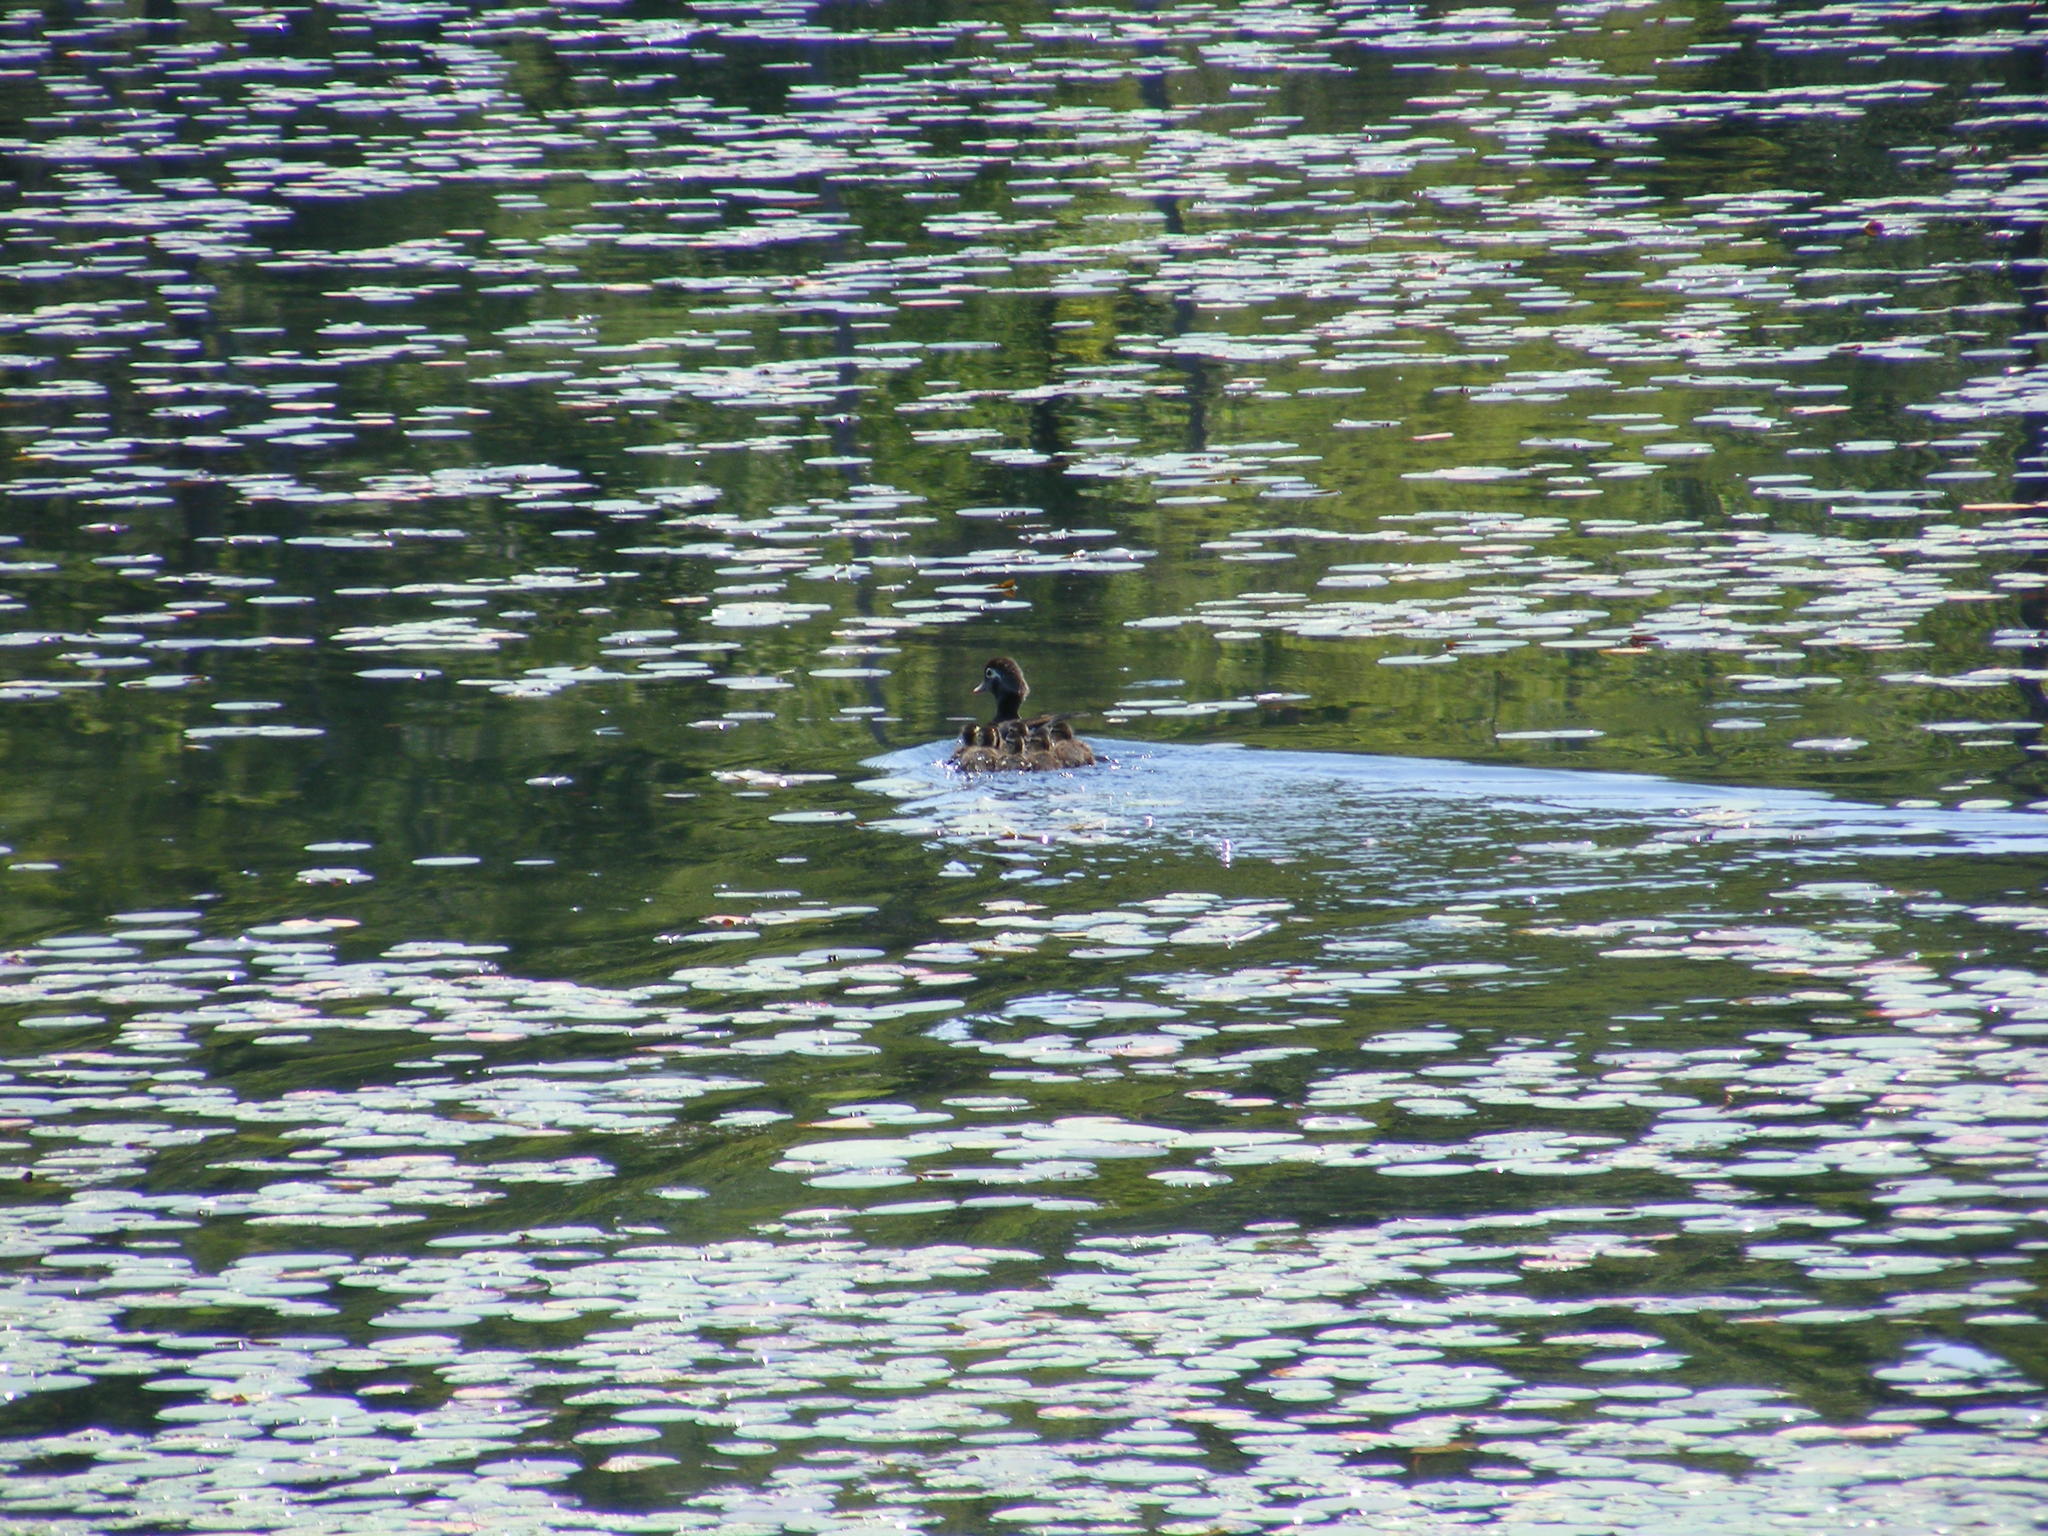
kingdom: Animalia
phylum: Chordata
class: Aves
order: Anseriformes
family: Anatidae
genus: Aix
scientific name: Aix sponsa
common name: Wood duck
